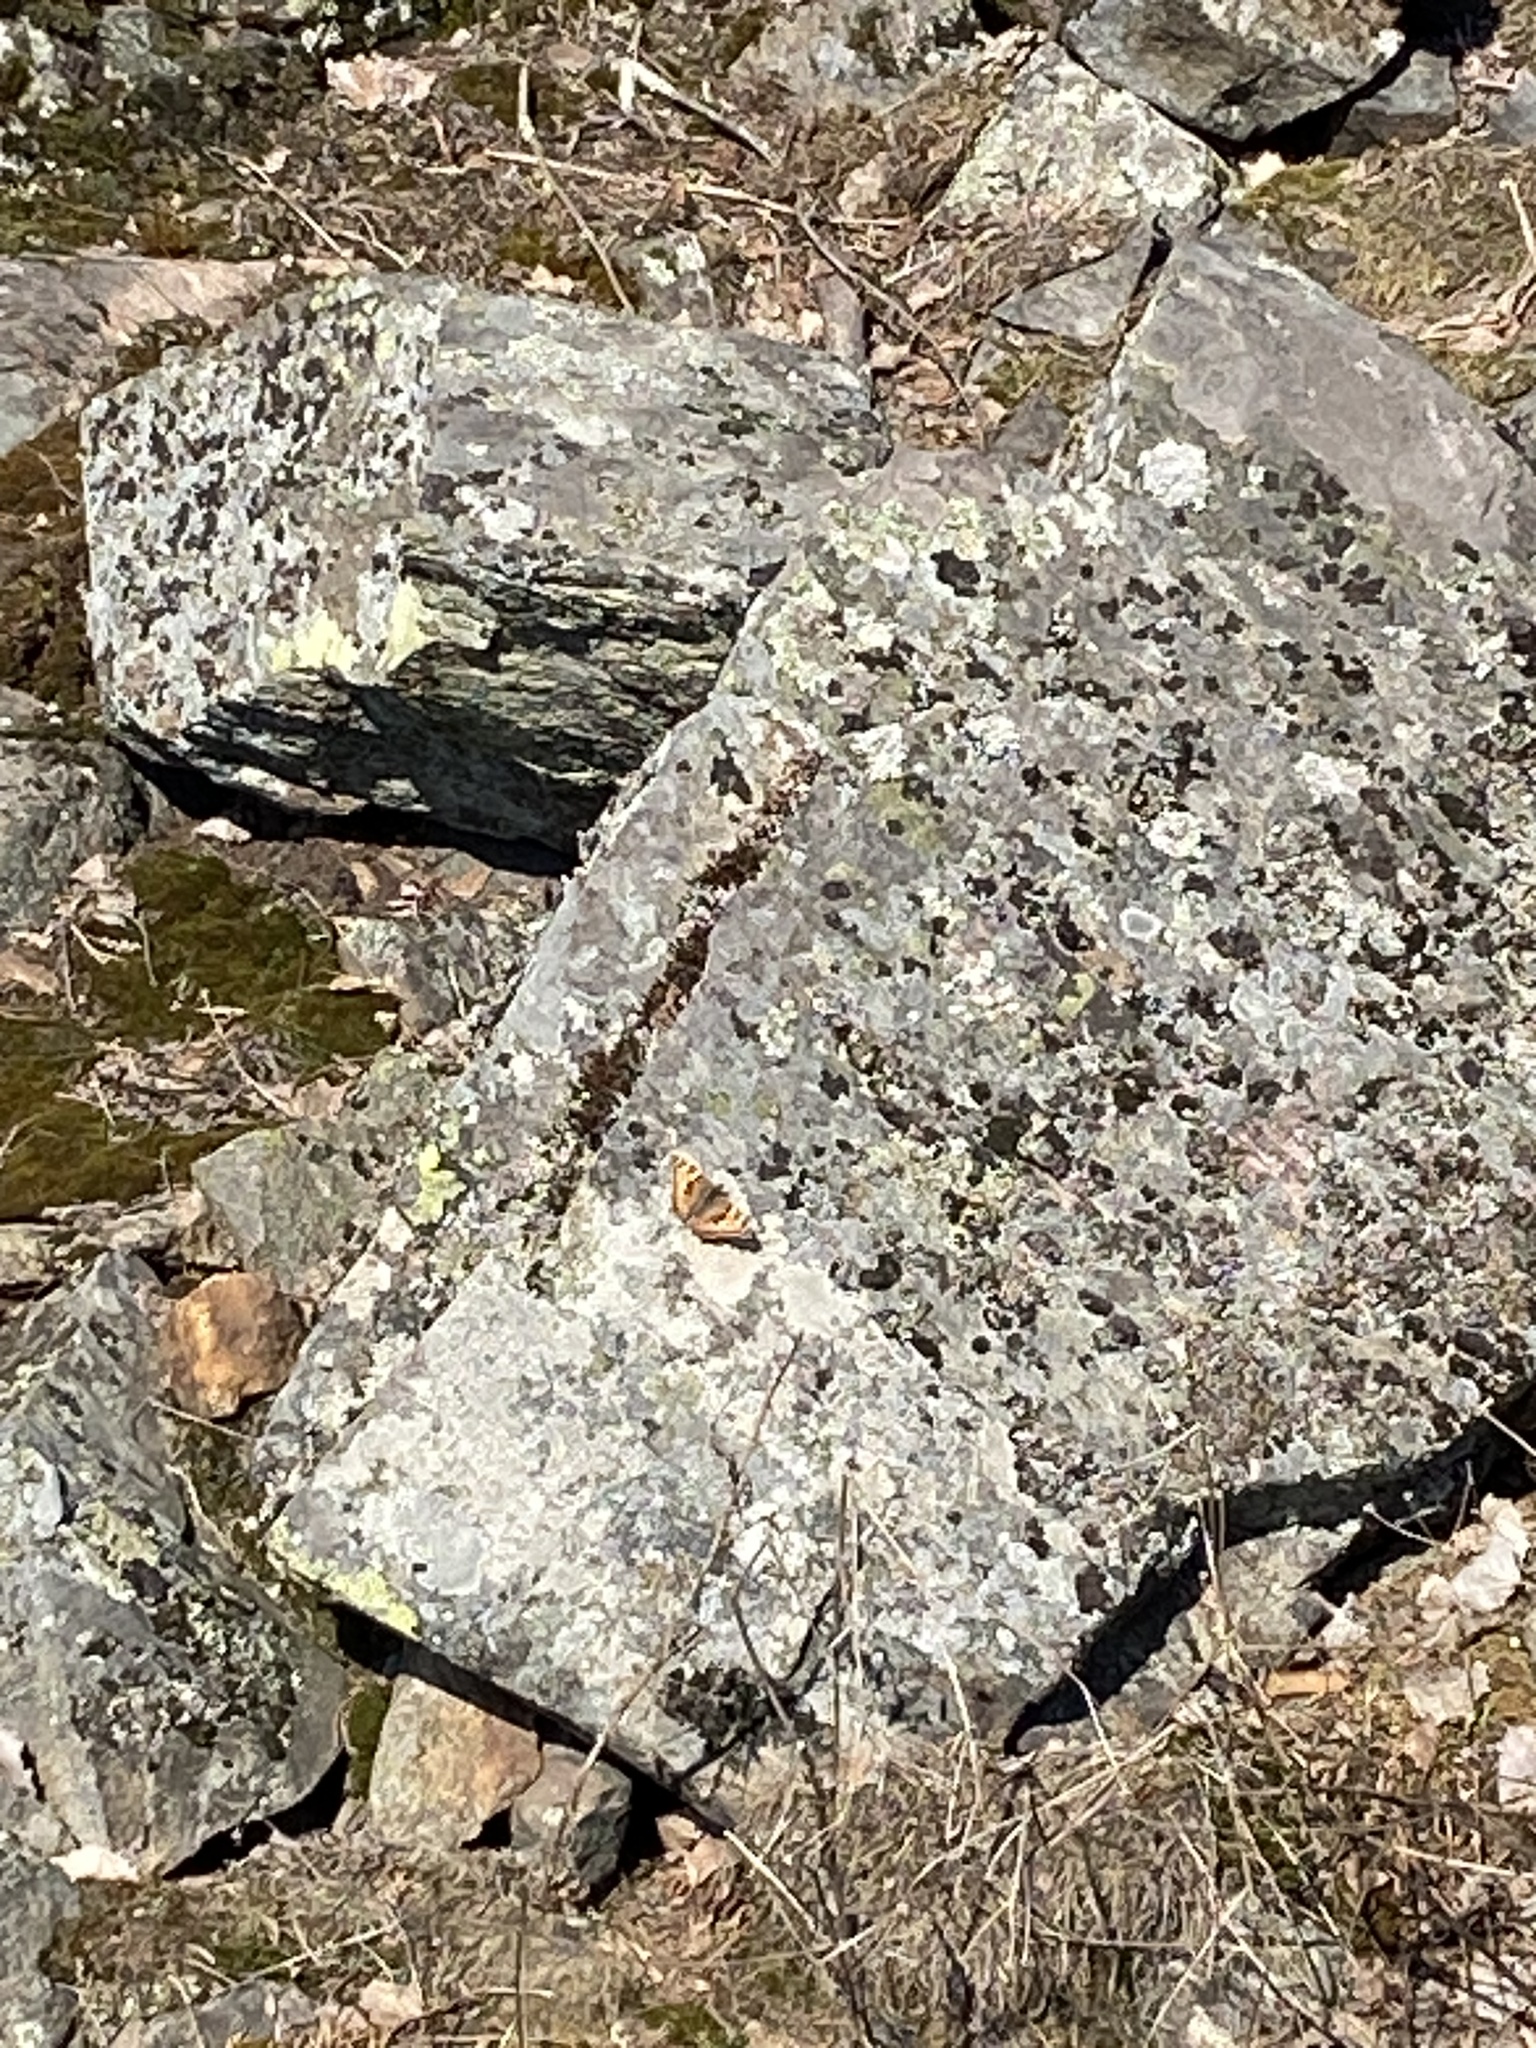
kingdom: Animalia
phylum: Arthropoda
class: Insecta
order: Lepidoptera
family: Nymphalidae
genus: Aglais
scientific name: Aglais urticae
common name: Small tortoiseshell
